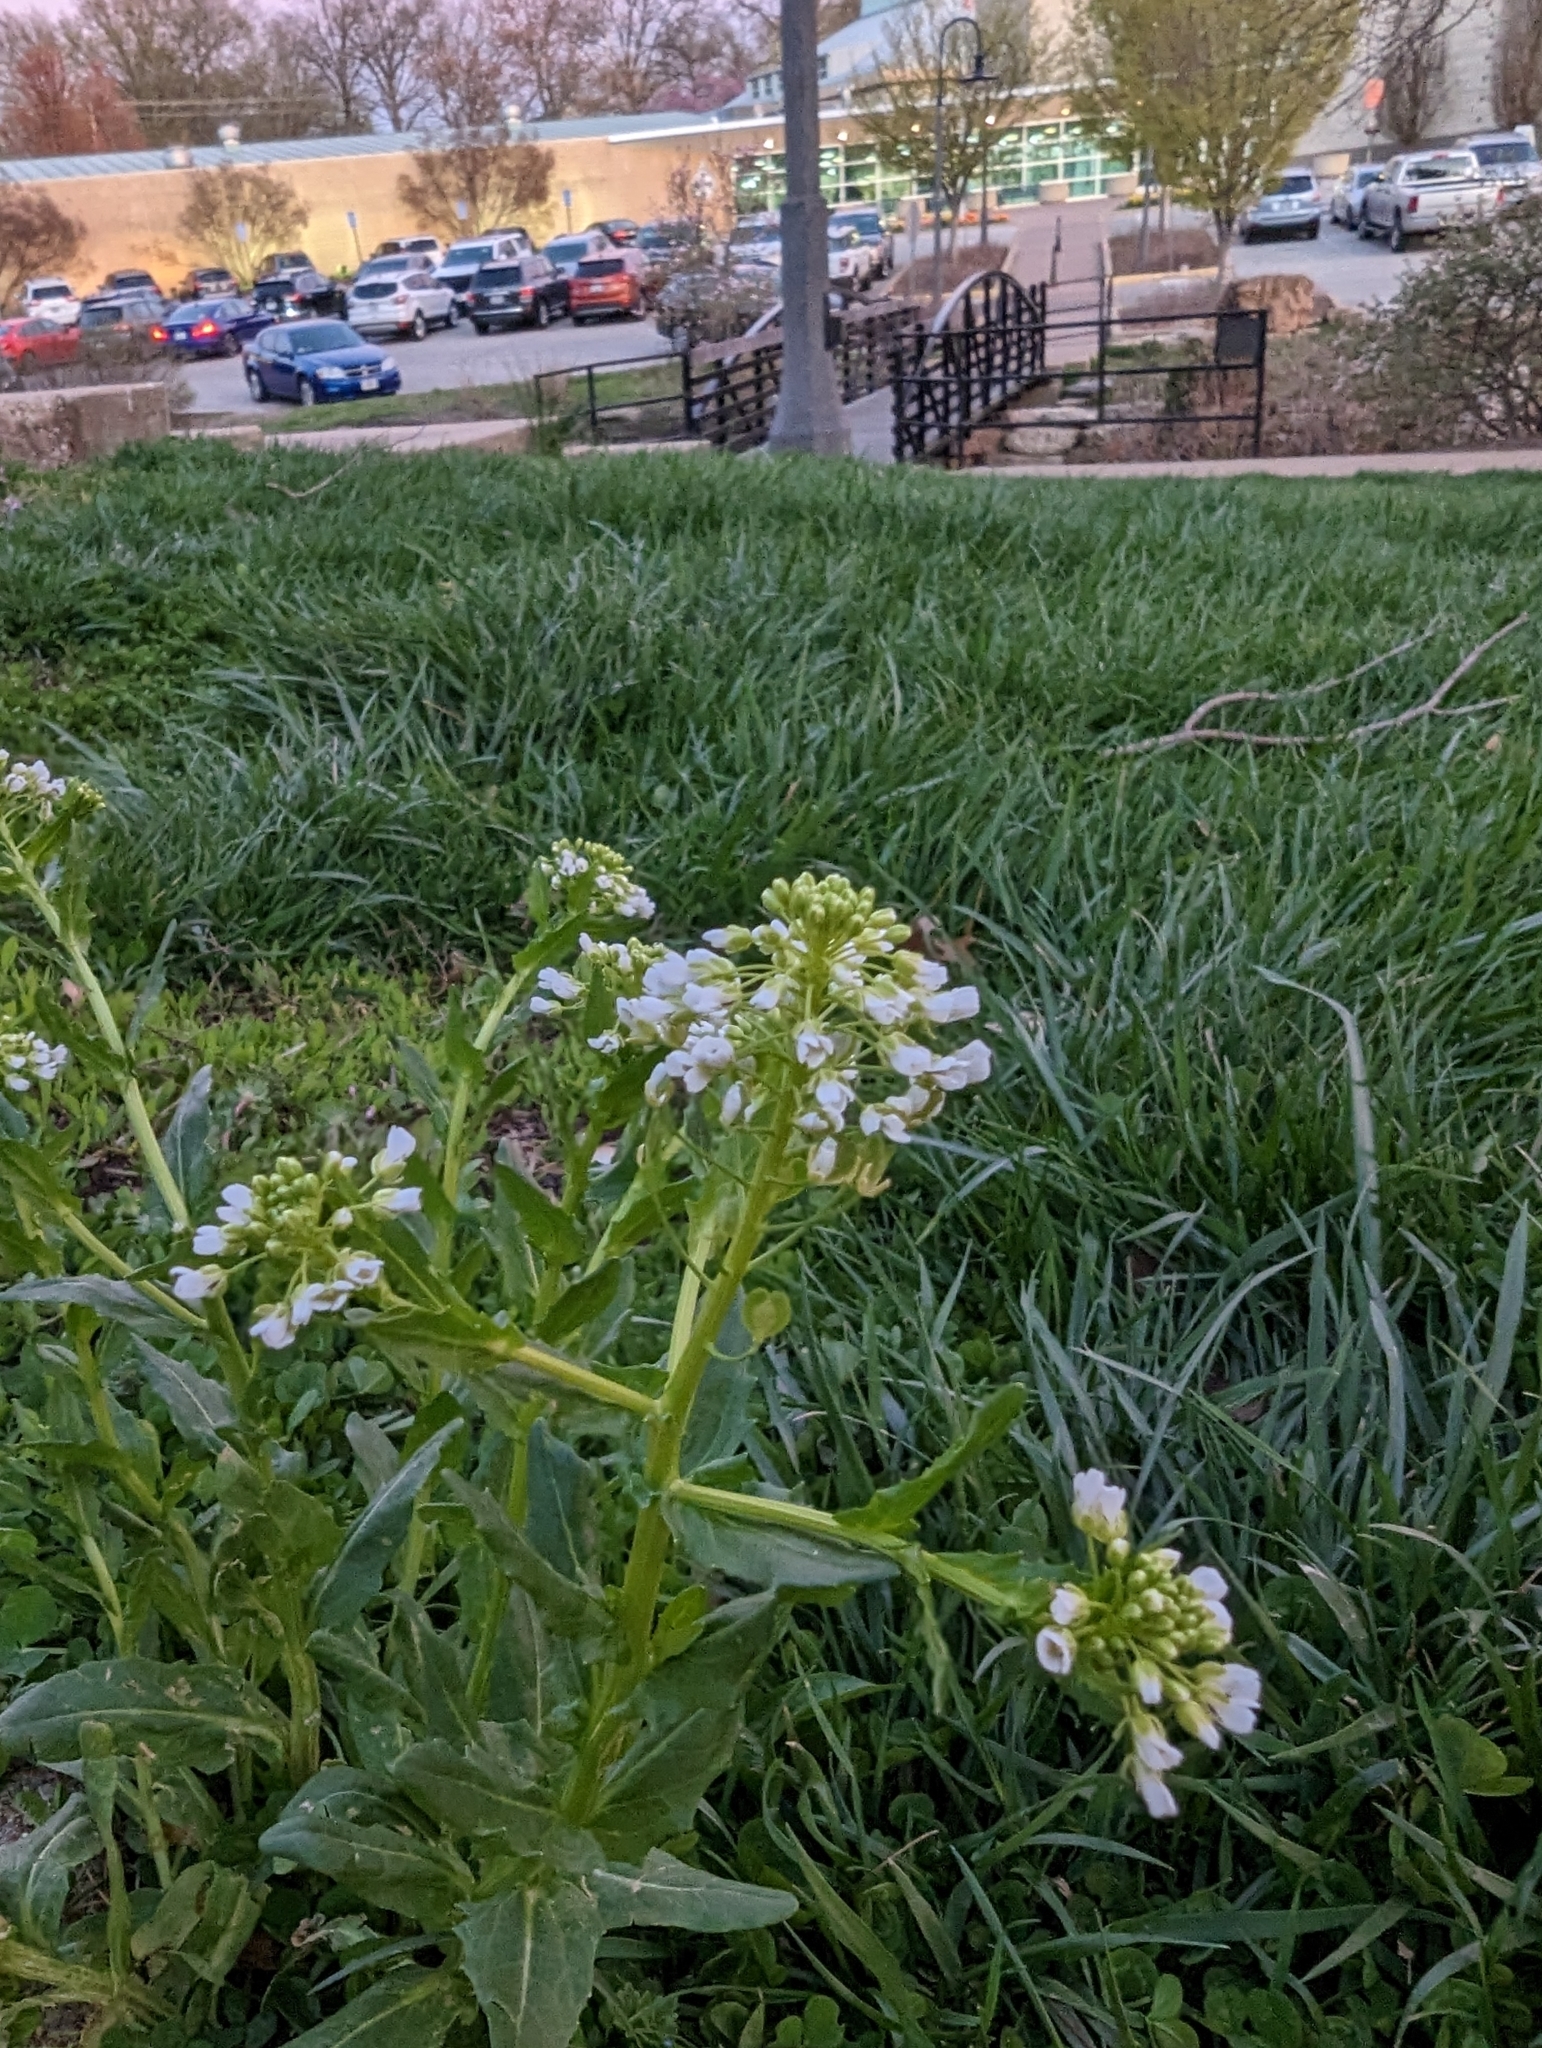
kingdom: Plantae
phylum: Tracheophyta
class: Magnoliopsida
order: Brassicales
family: Brassicaceae
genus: Thlaspi
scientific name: Thlaspi arvense
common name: Field pennycress
